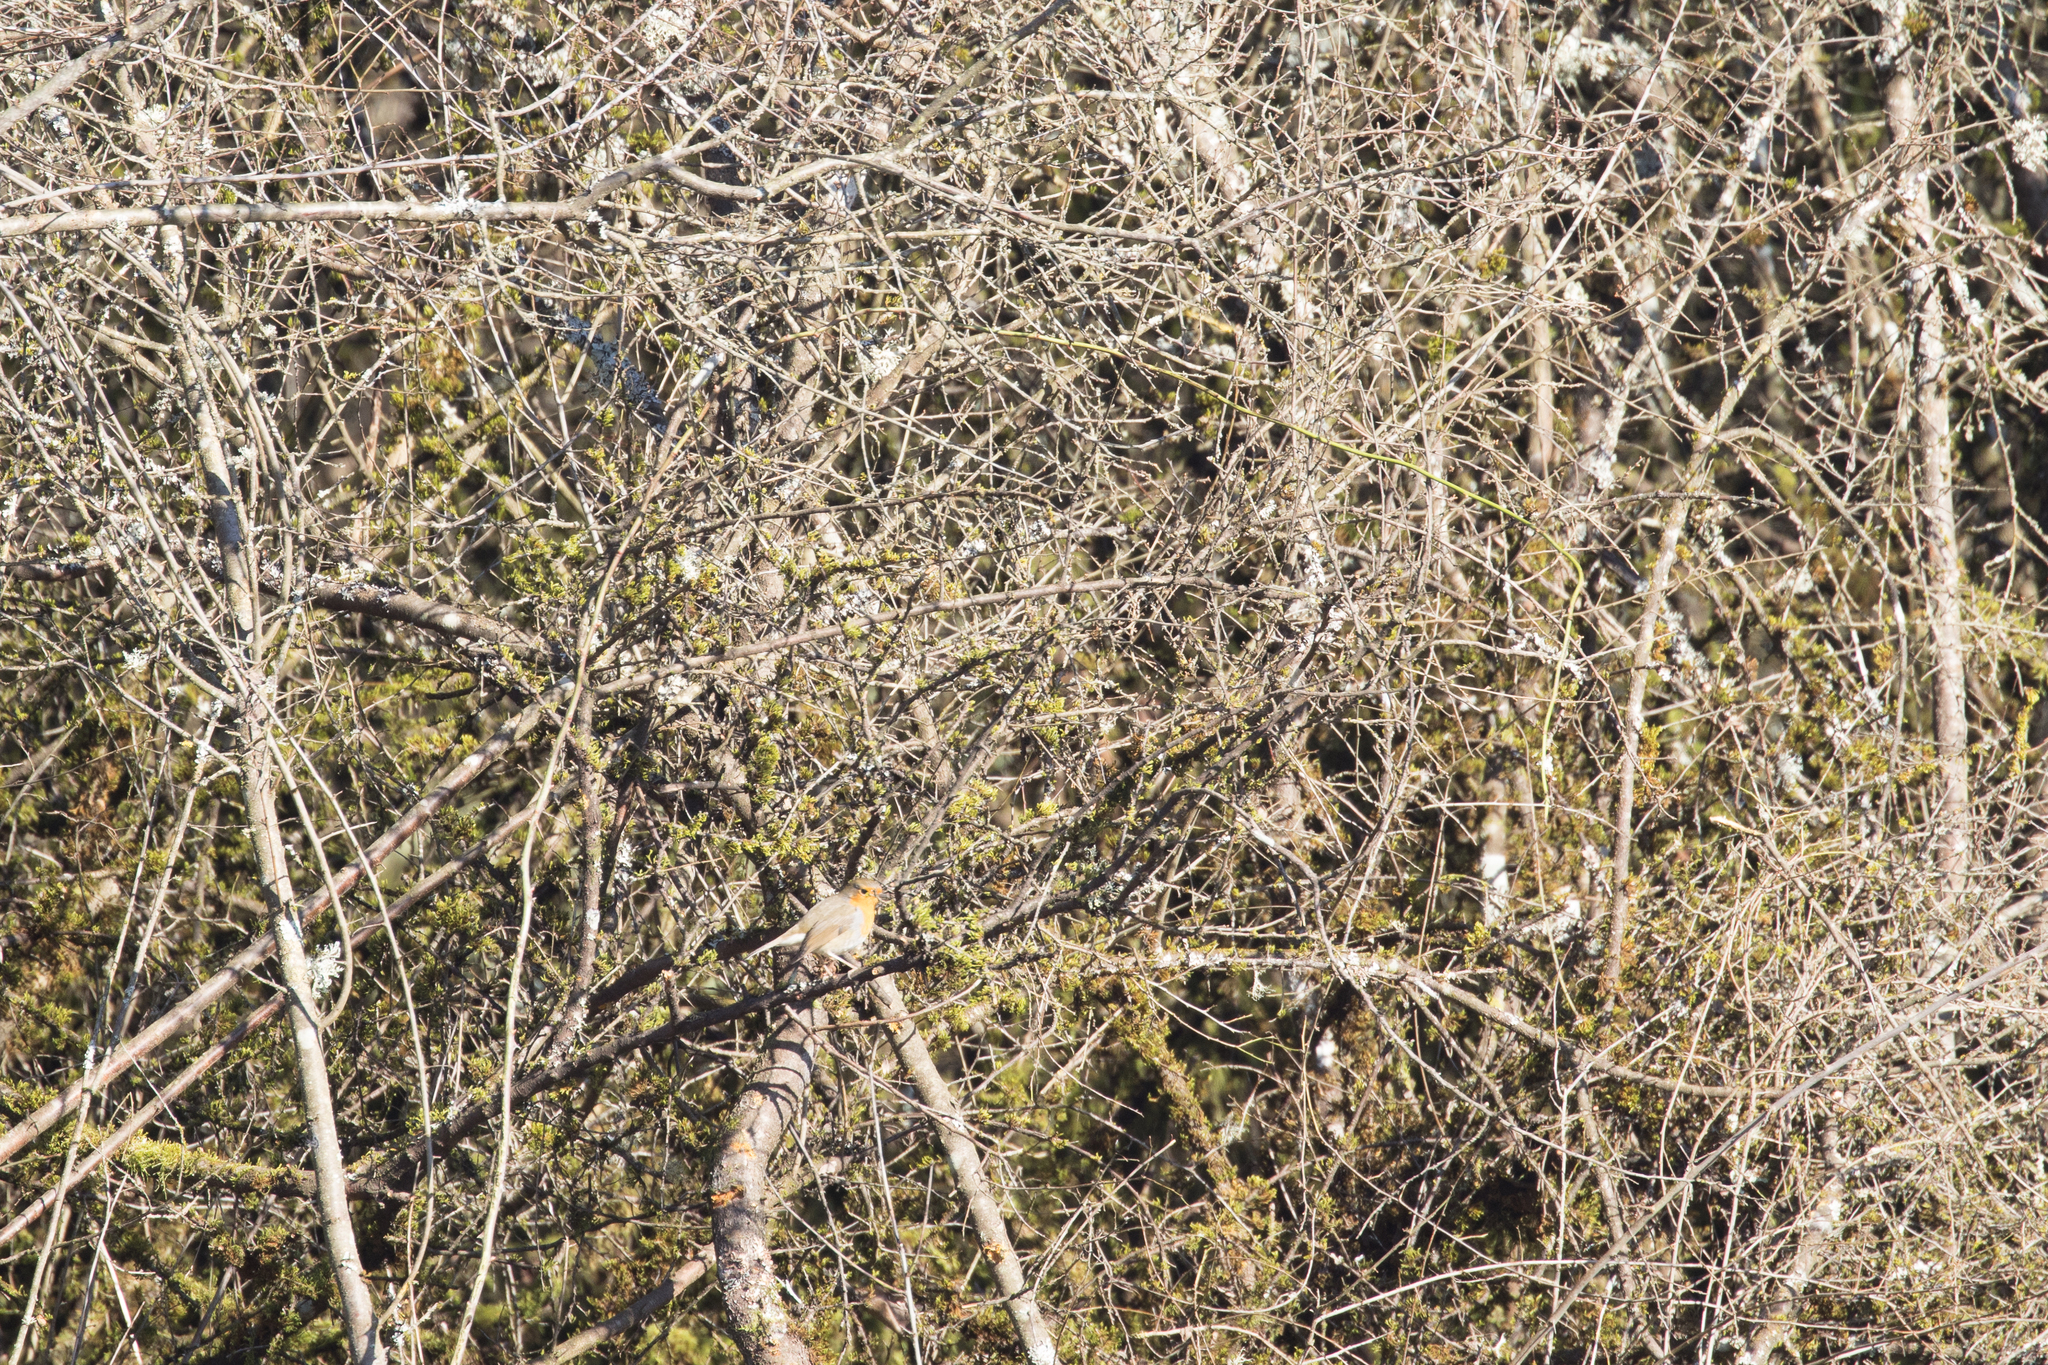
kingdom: Animalia
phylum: Chordata
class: Aves
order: Passeriformes
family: Muscicapidae
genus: Erithacus
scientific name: Erithacus rubecula
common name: European robin
